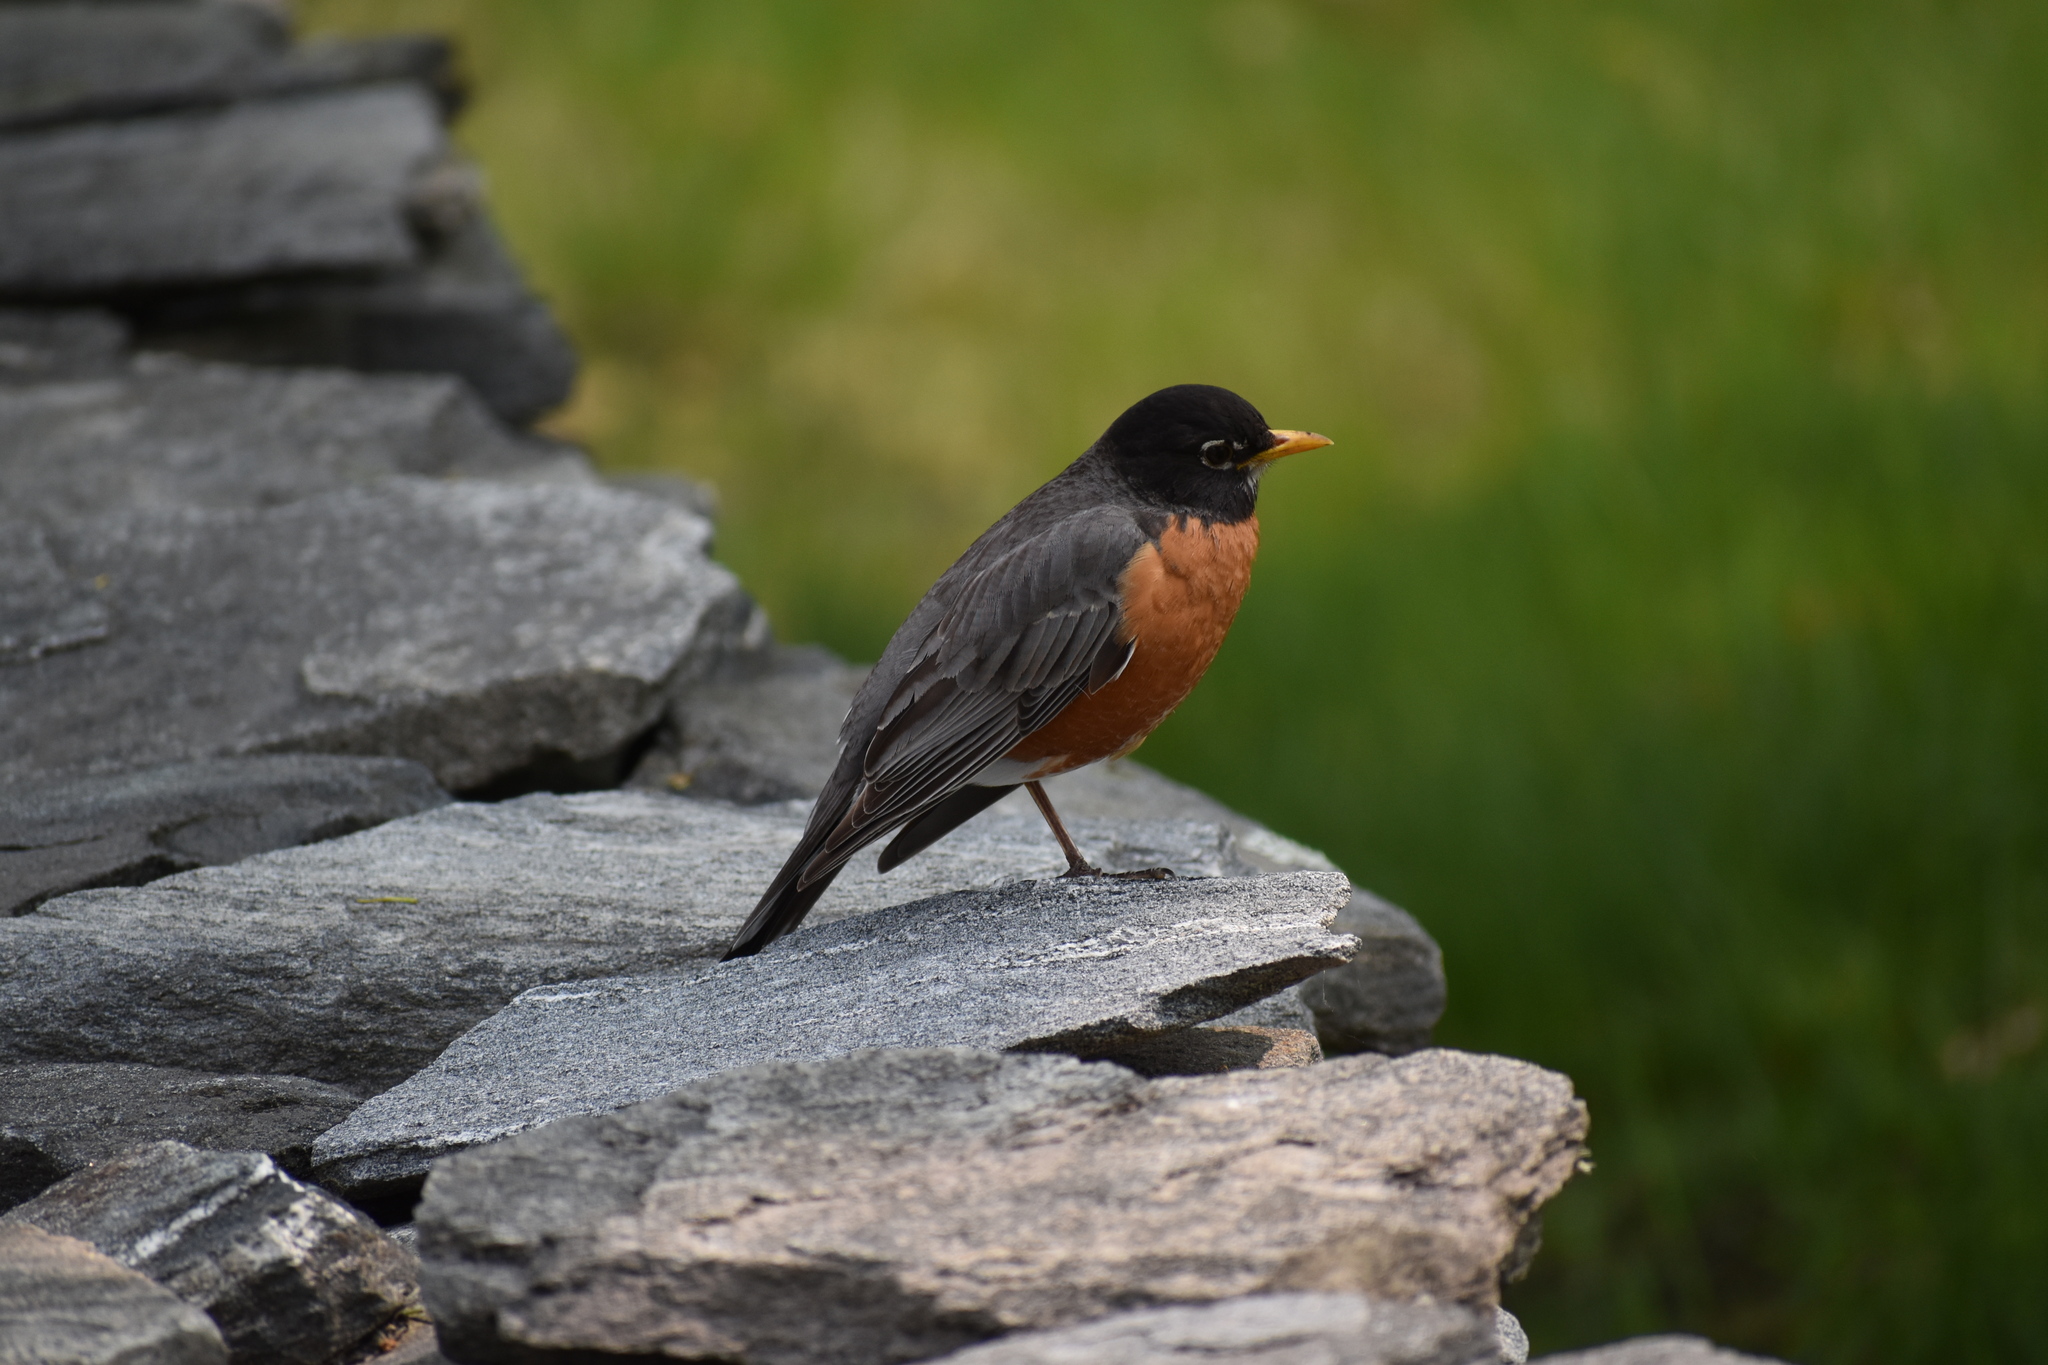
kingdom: Animalia
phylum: Chordata
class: Aves
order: Passeriformes
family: Turdidae
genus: Turdus
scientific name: Turdus migratorius
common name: American robin
